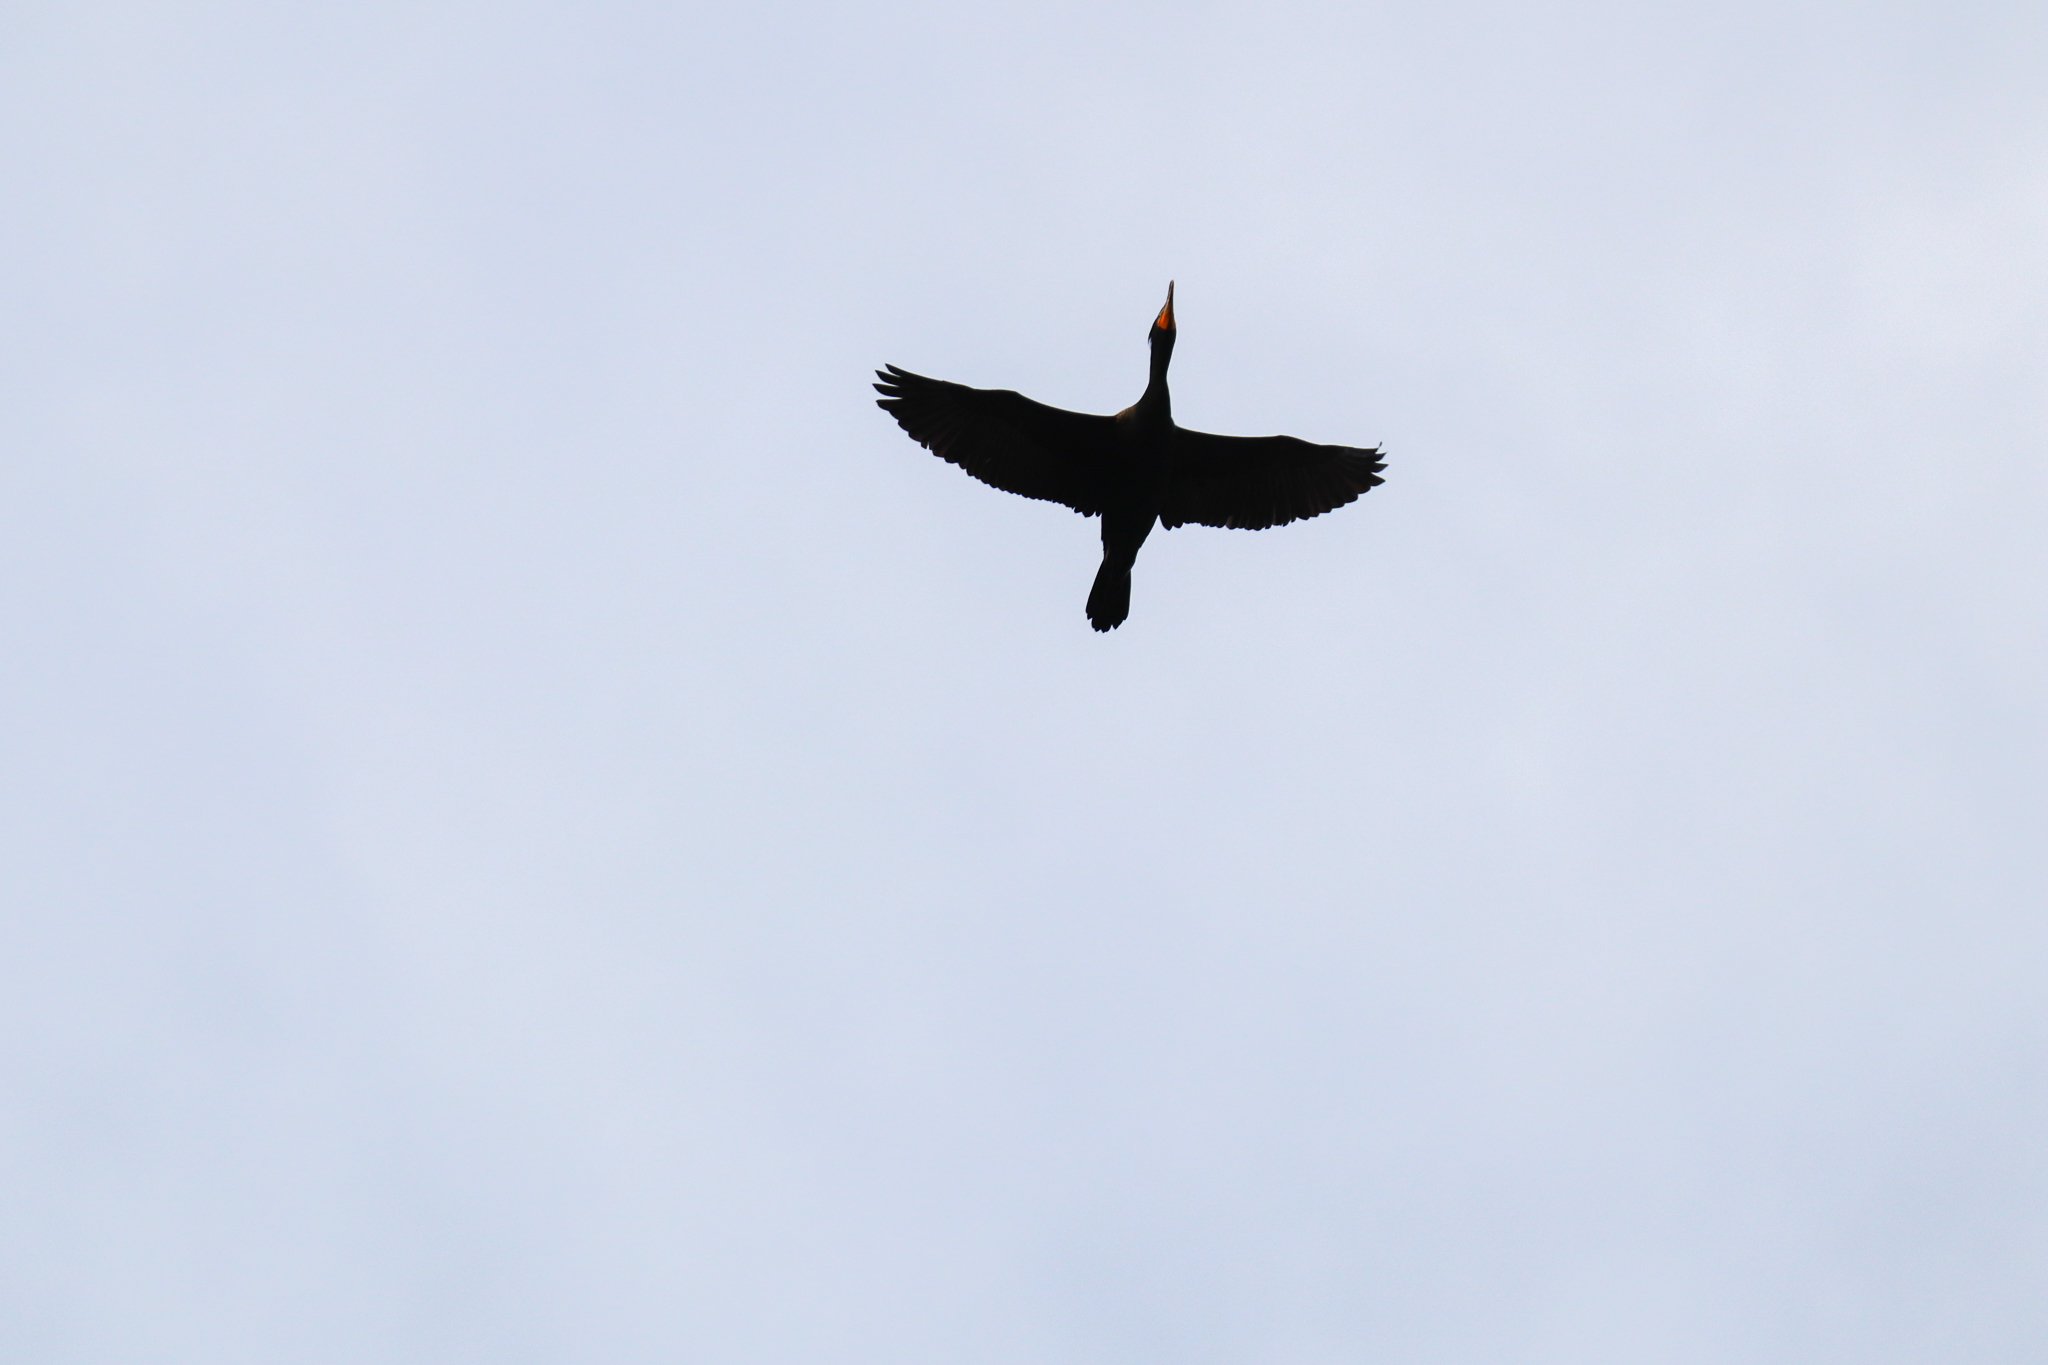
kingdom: Animalia
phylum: Chordata
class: Aves
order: Suliformes
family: Phalacrocoracidae
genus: Phalacrocorax
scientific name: Phalacrocorax auritus
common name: Double-crested cormorant
